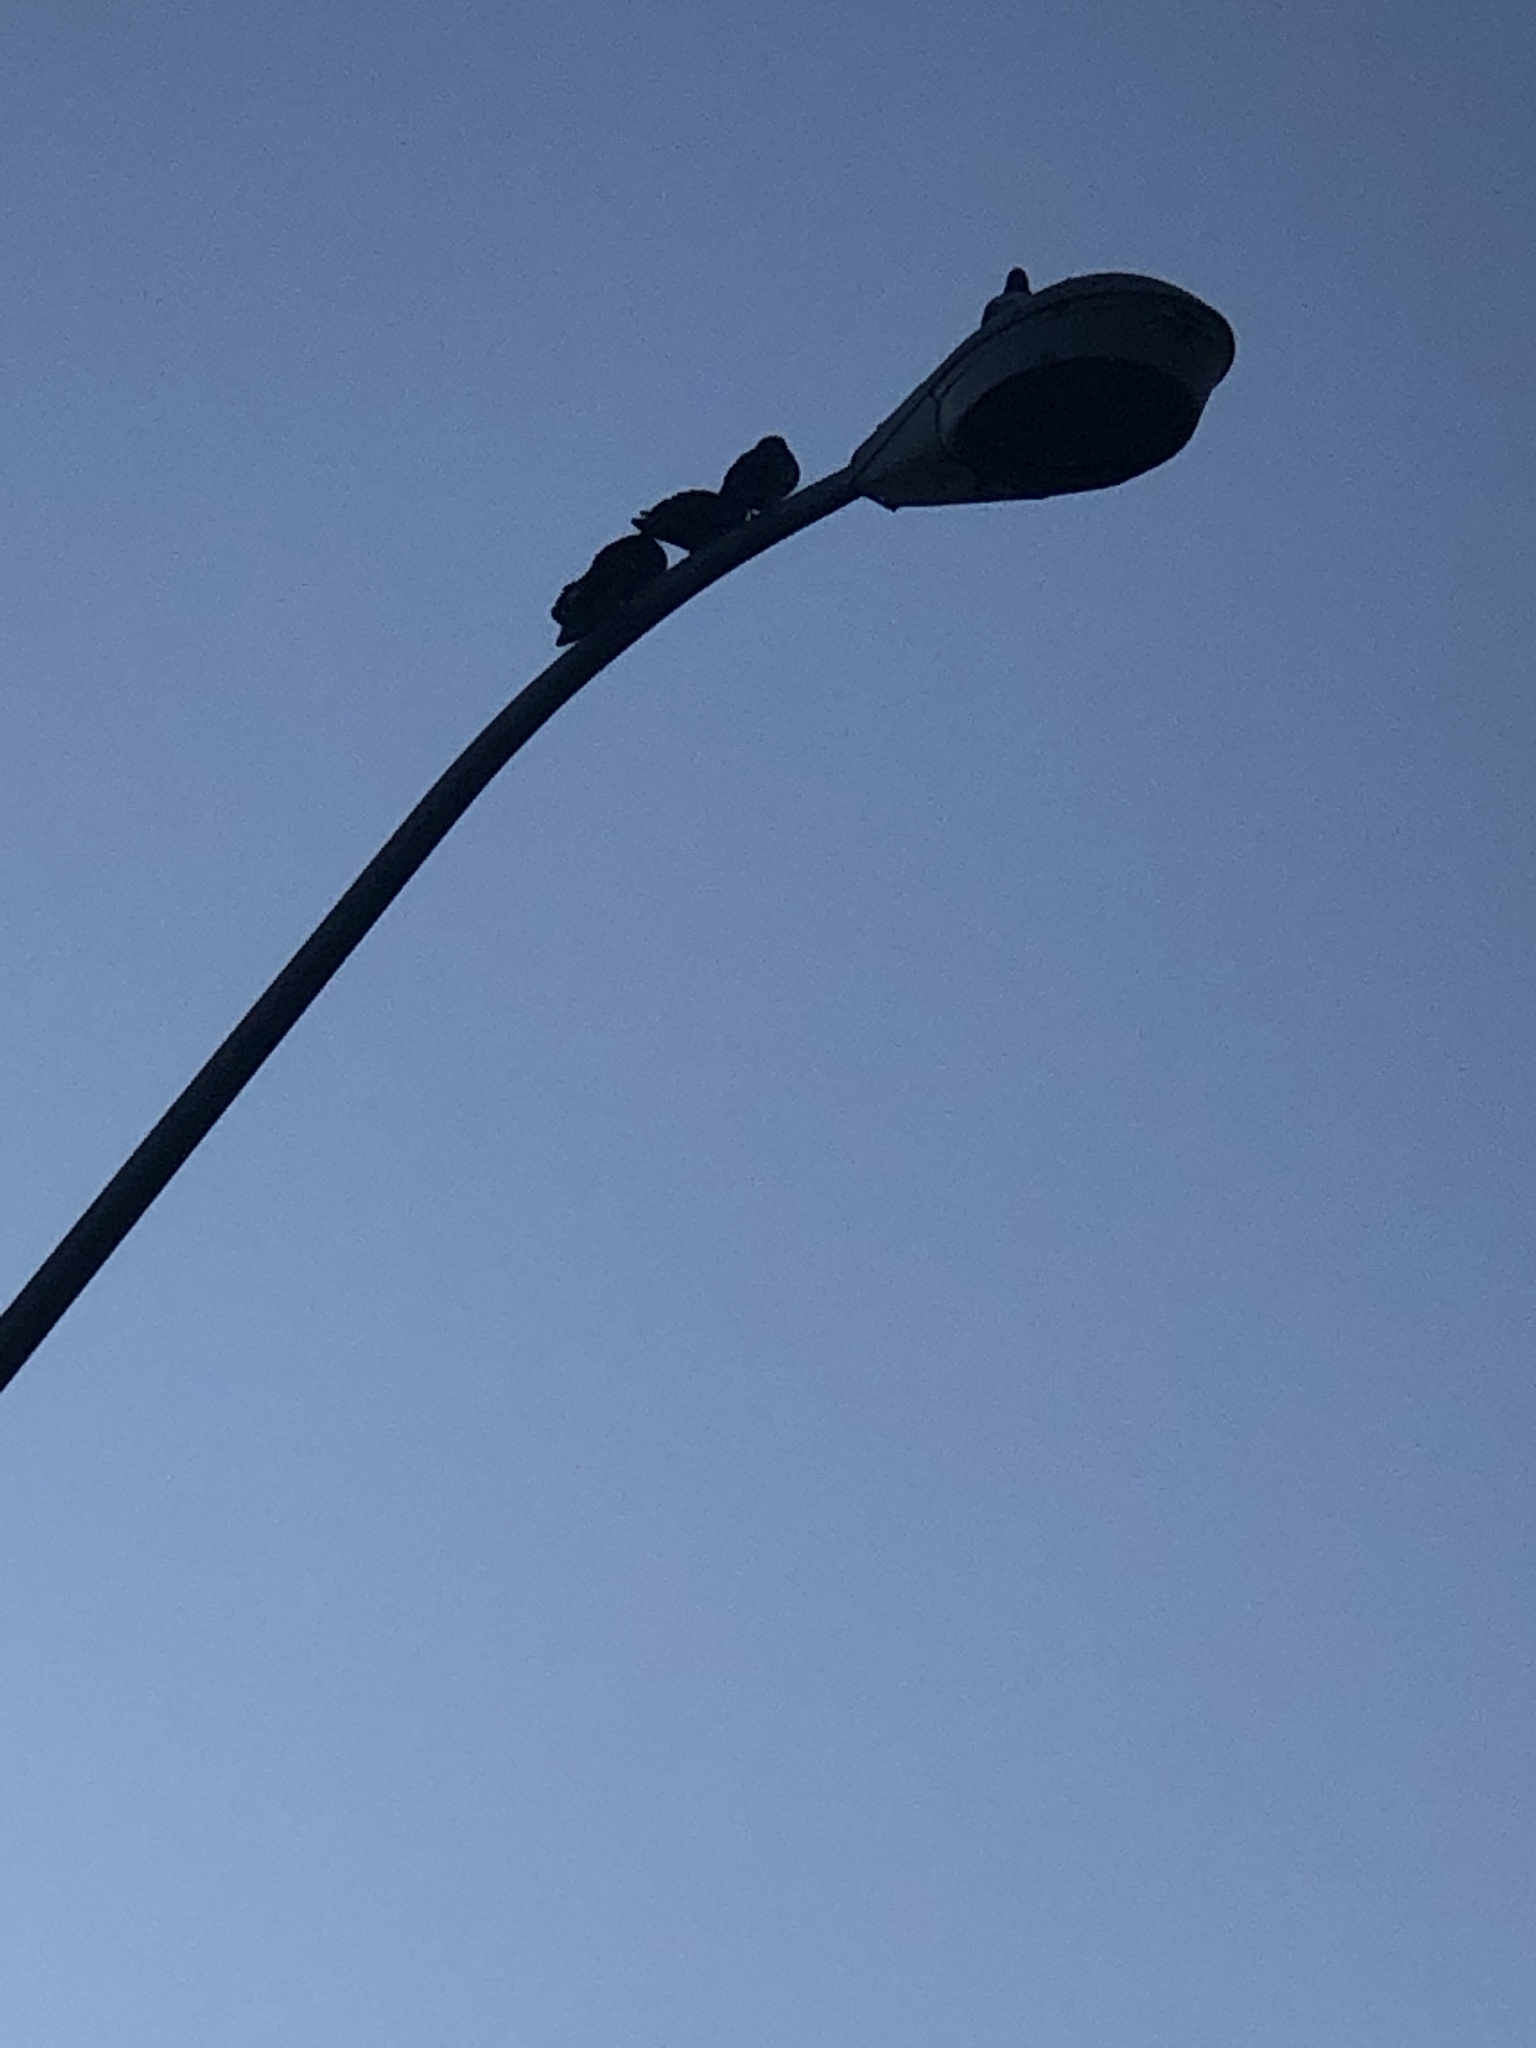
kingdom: Animalia
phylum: Chordata
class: Aves
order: Columbiformes
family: Columbidae
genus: Columba
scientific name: Columba livia
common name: Rock pigeon
